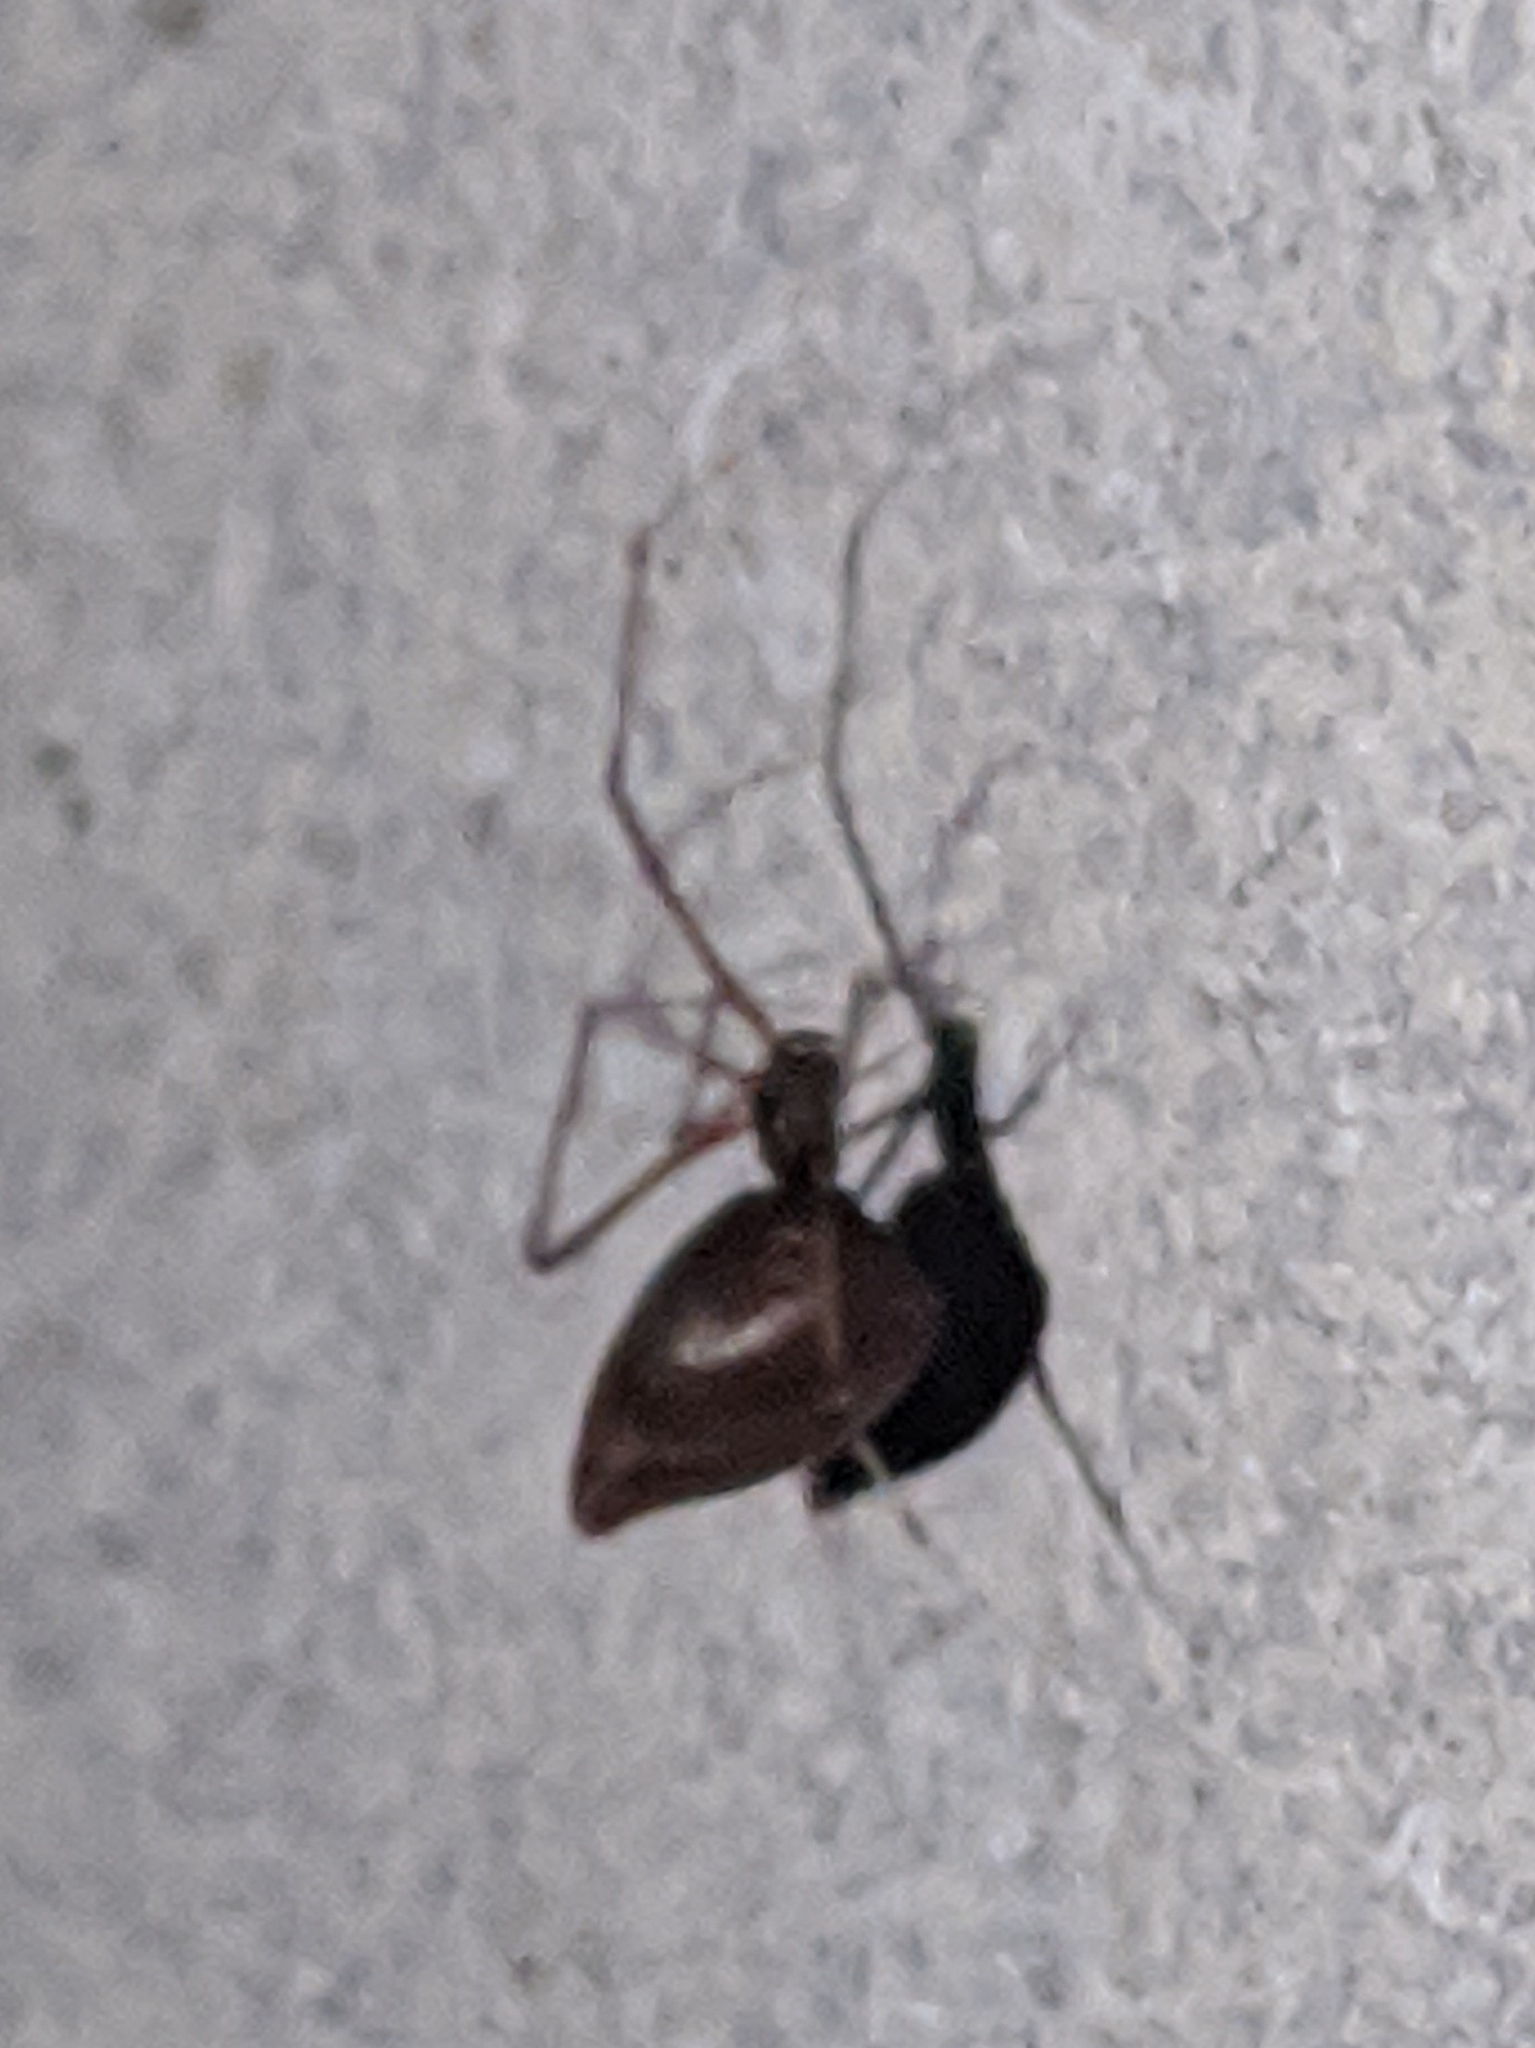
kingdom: Animalia
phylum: Arthropoda
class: Arachnida
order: Araneae
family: Theridiidae
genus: Neospintharus
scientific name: Neospintharus trigonum
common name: Horned parasitic cobweaver
